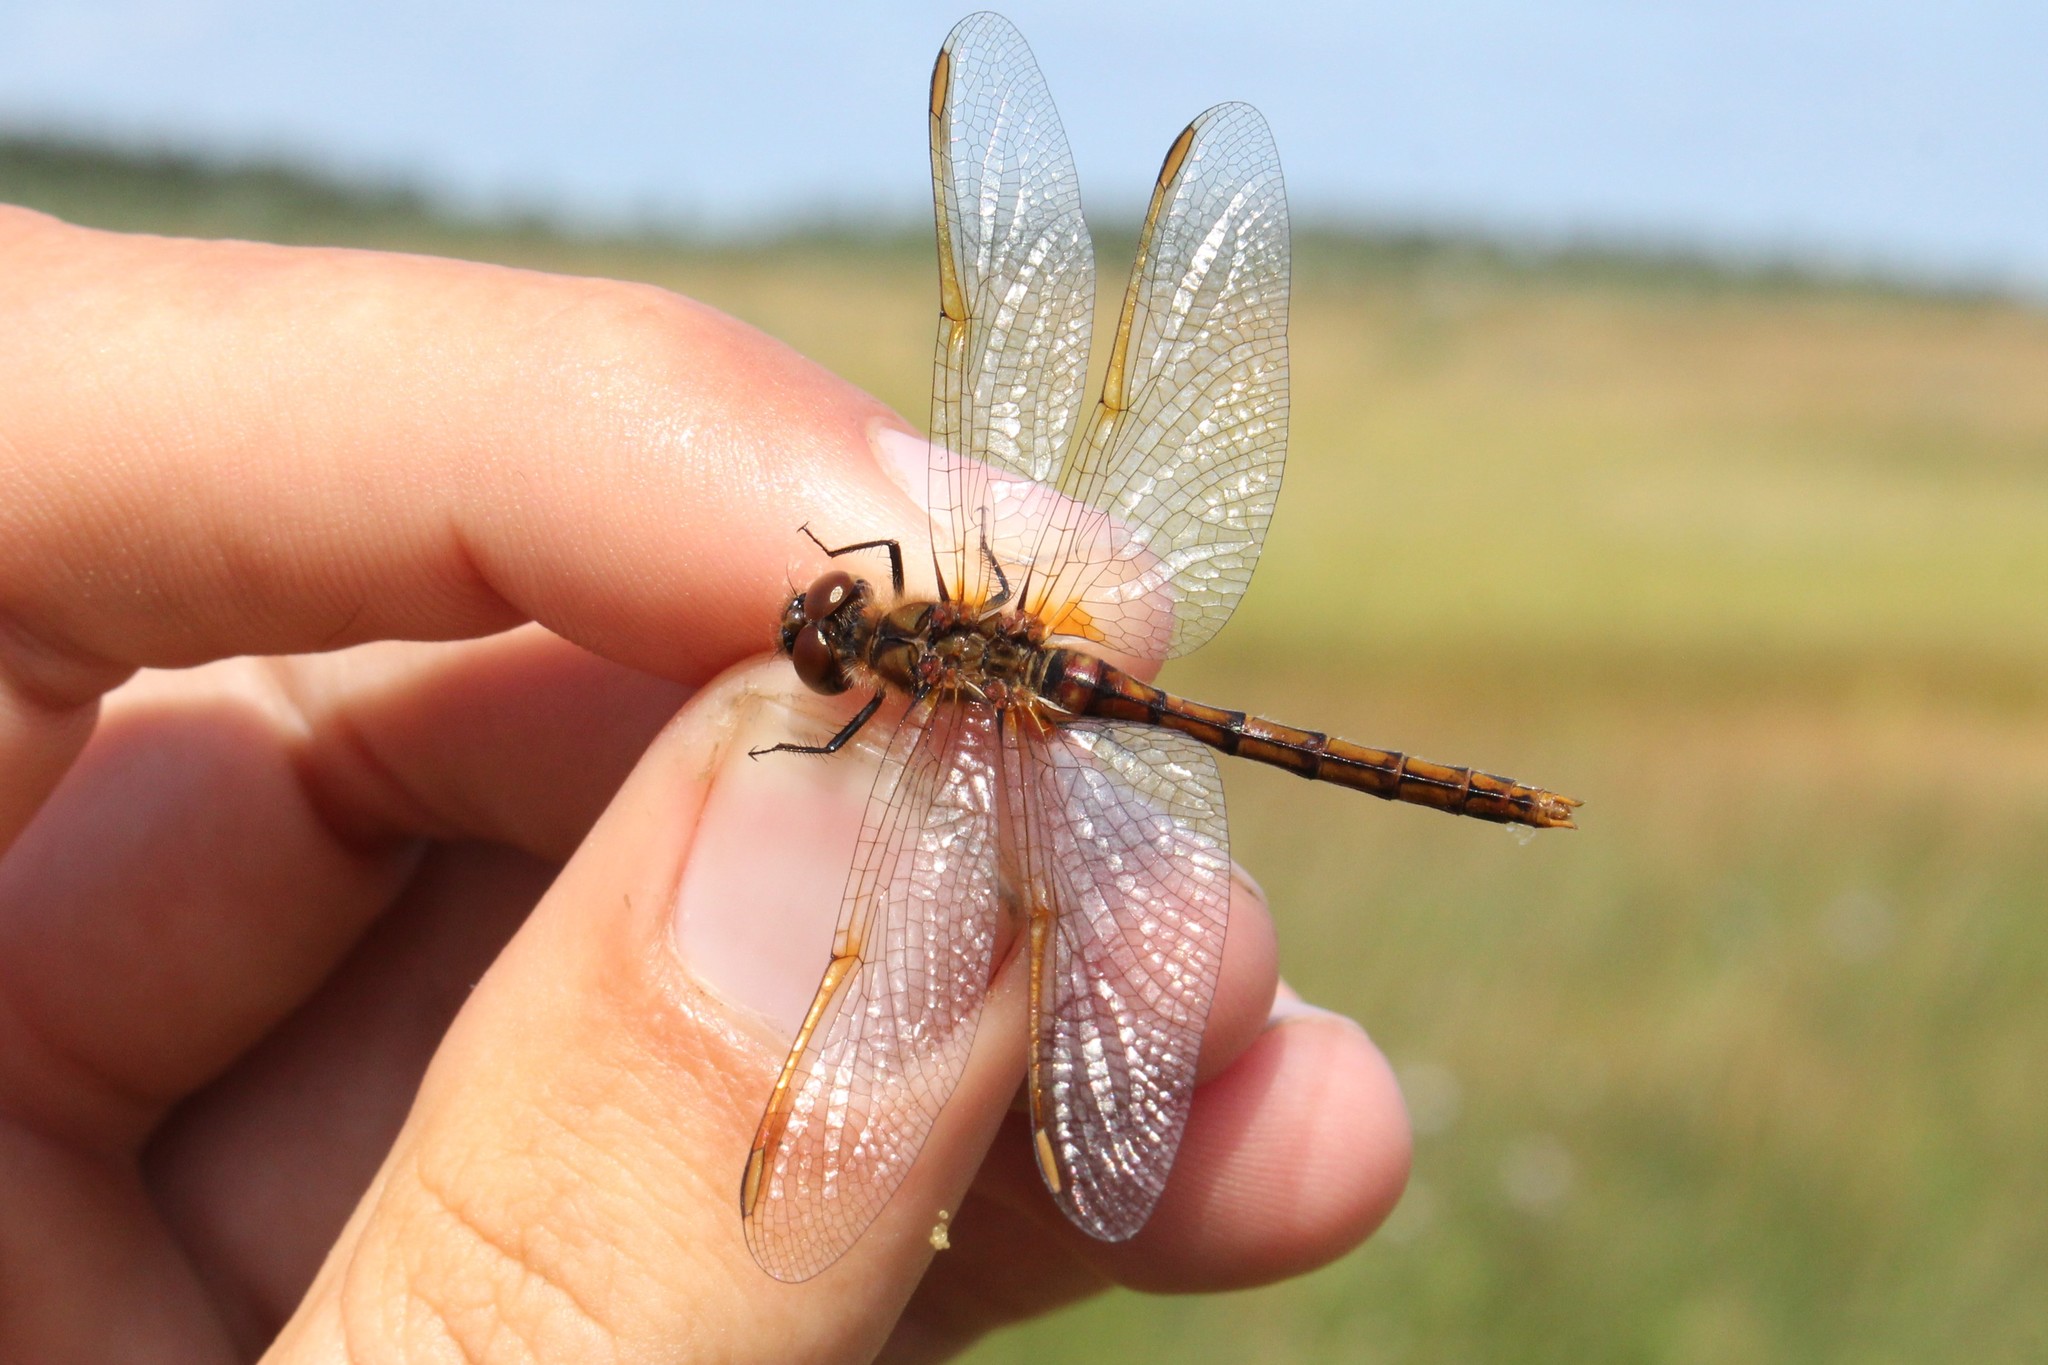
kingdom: Animalia
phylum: Arthropoda
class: Insecta
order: Odonata
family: Libellulidae
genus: Sympetrum
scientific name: Sympetrum costiferum
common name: Saffron-winged meadowhawk
